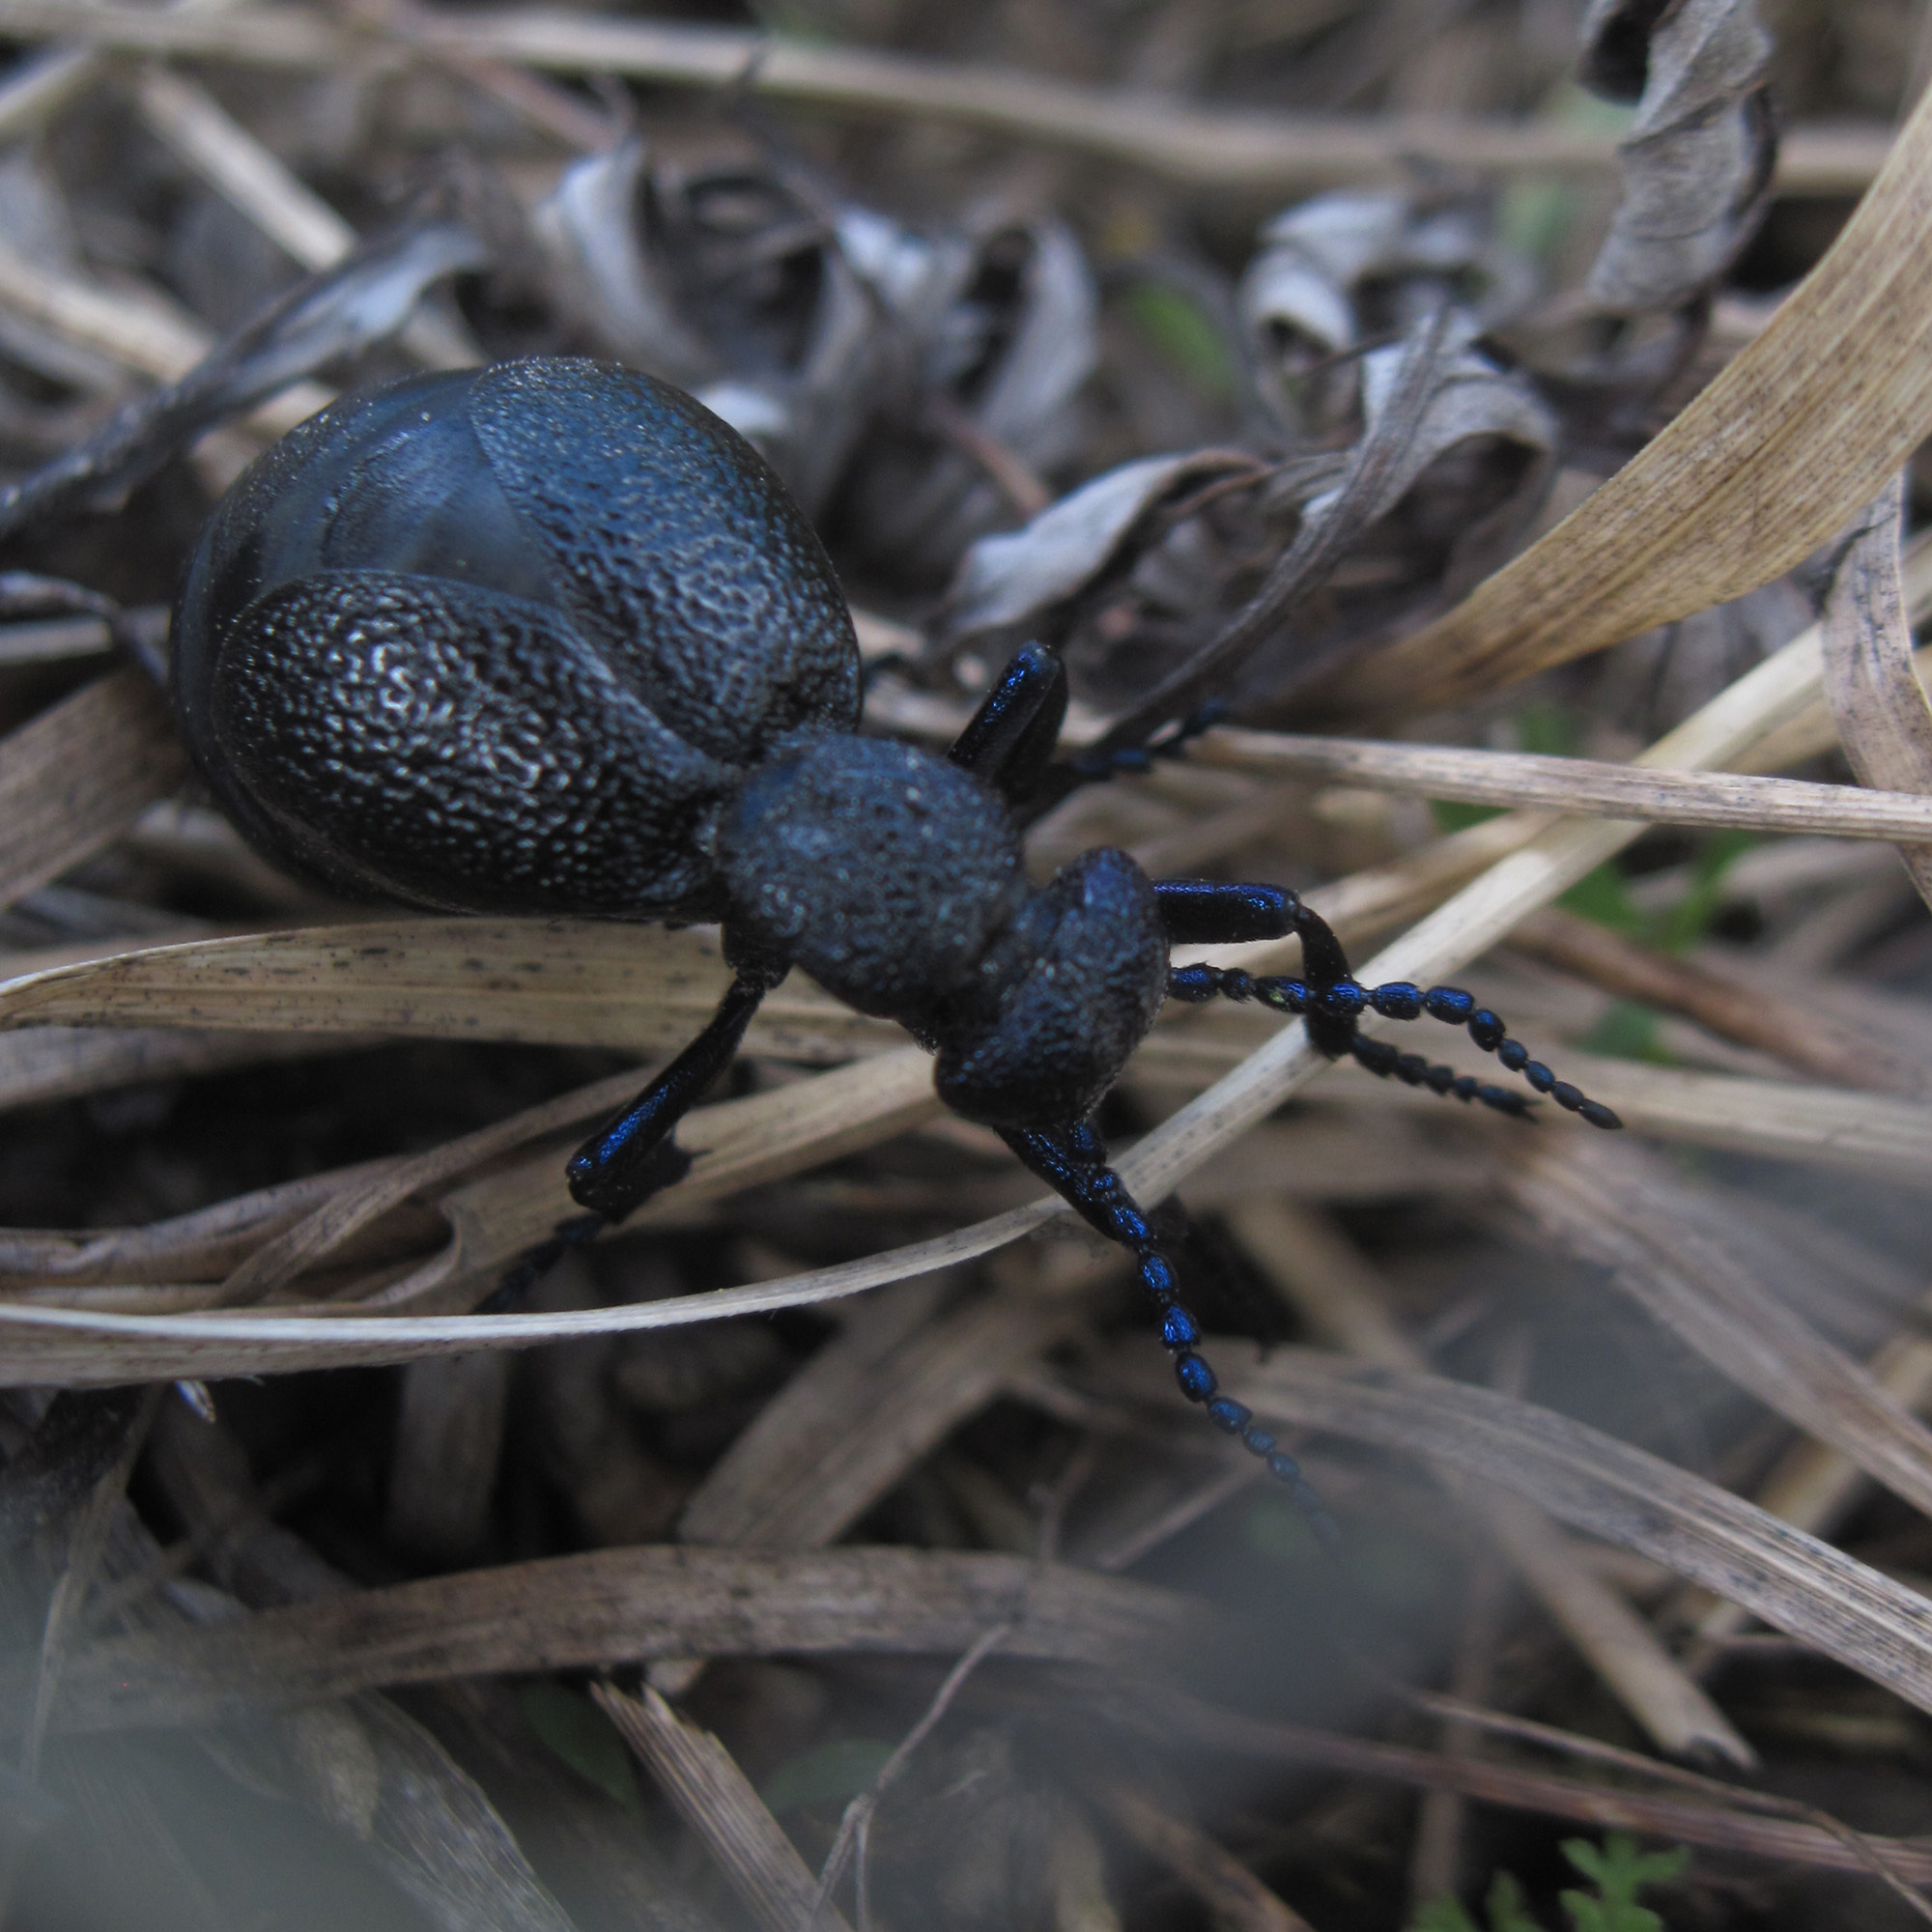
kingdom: Animalia
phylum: Arthropoda
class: Insecta
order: Coleoptera
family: Meloidae
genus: Meloe
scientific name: Meloe proscarabaeus
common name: Black oil-beetle
